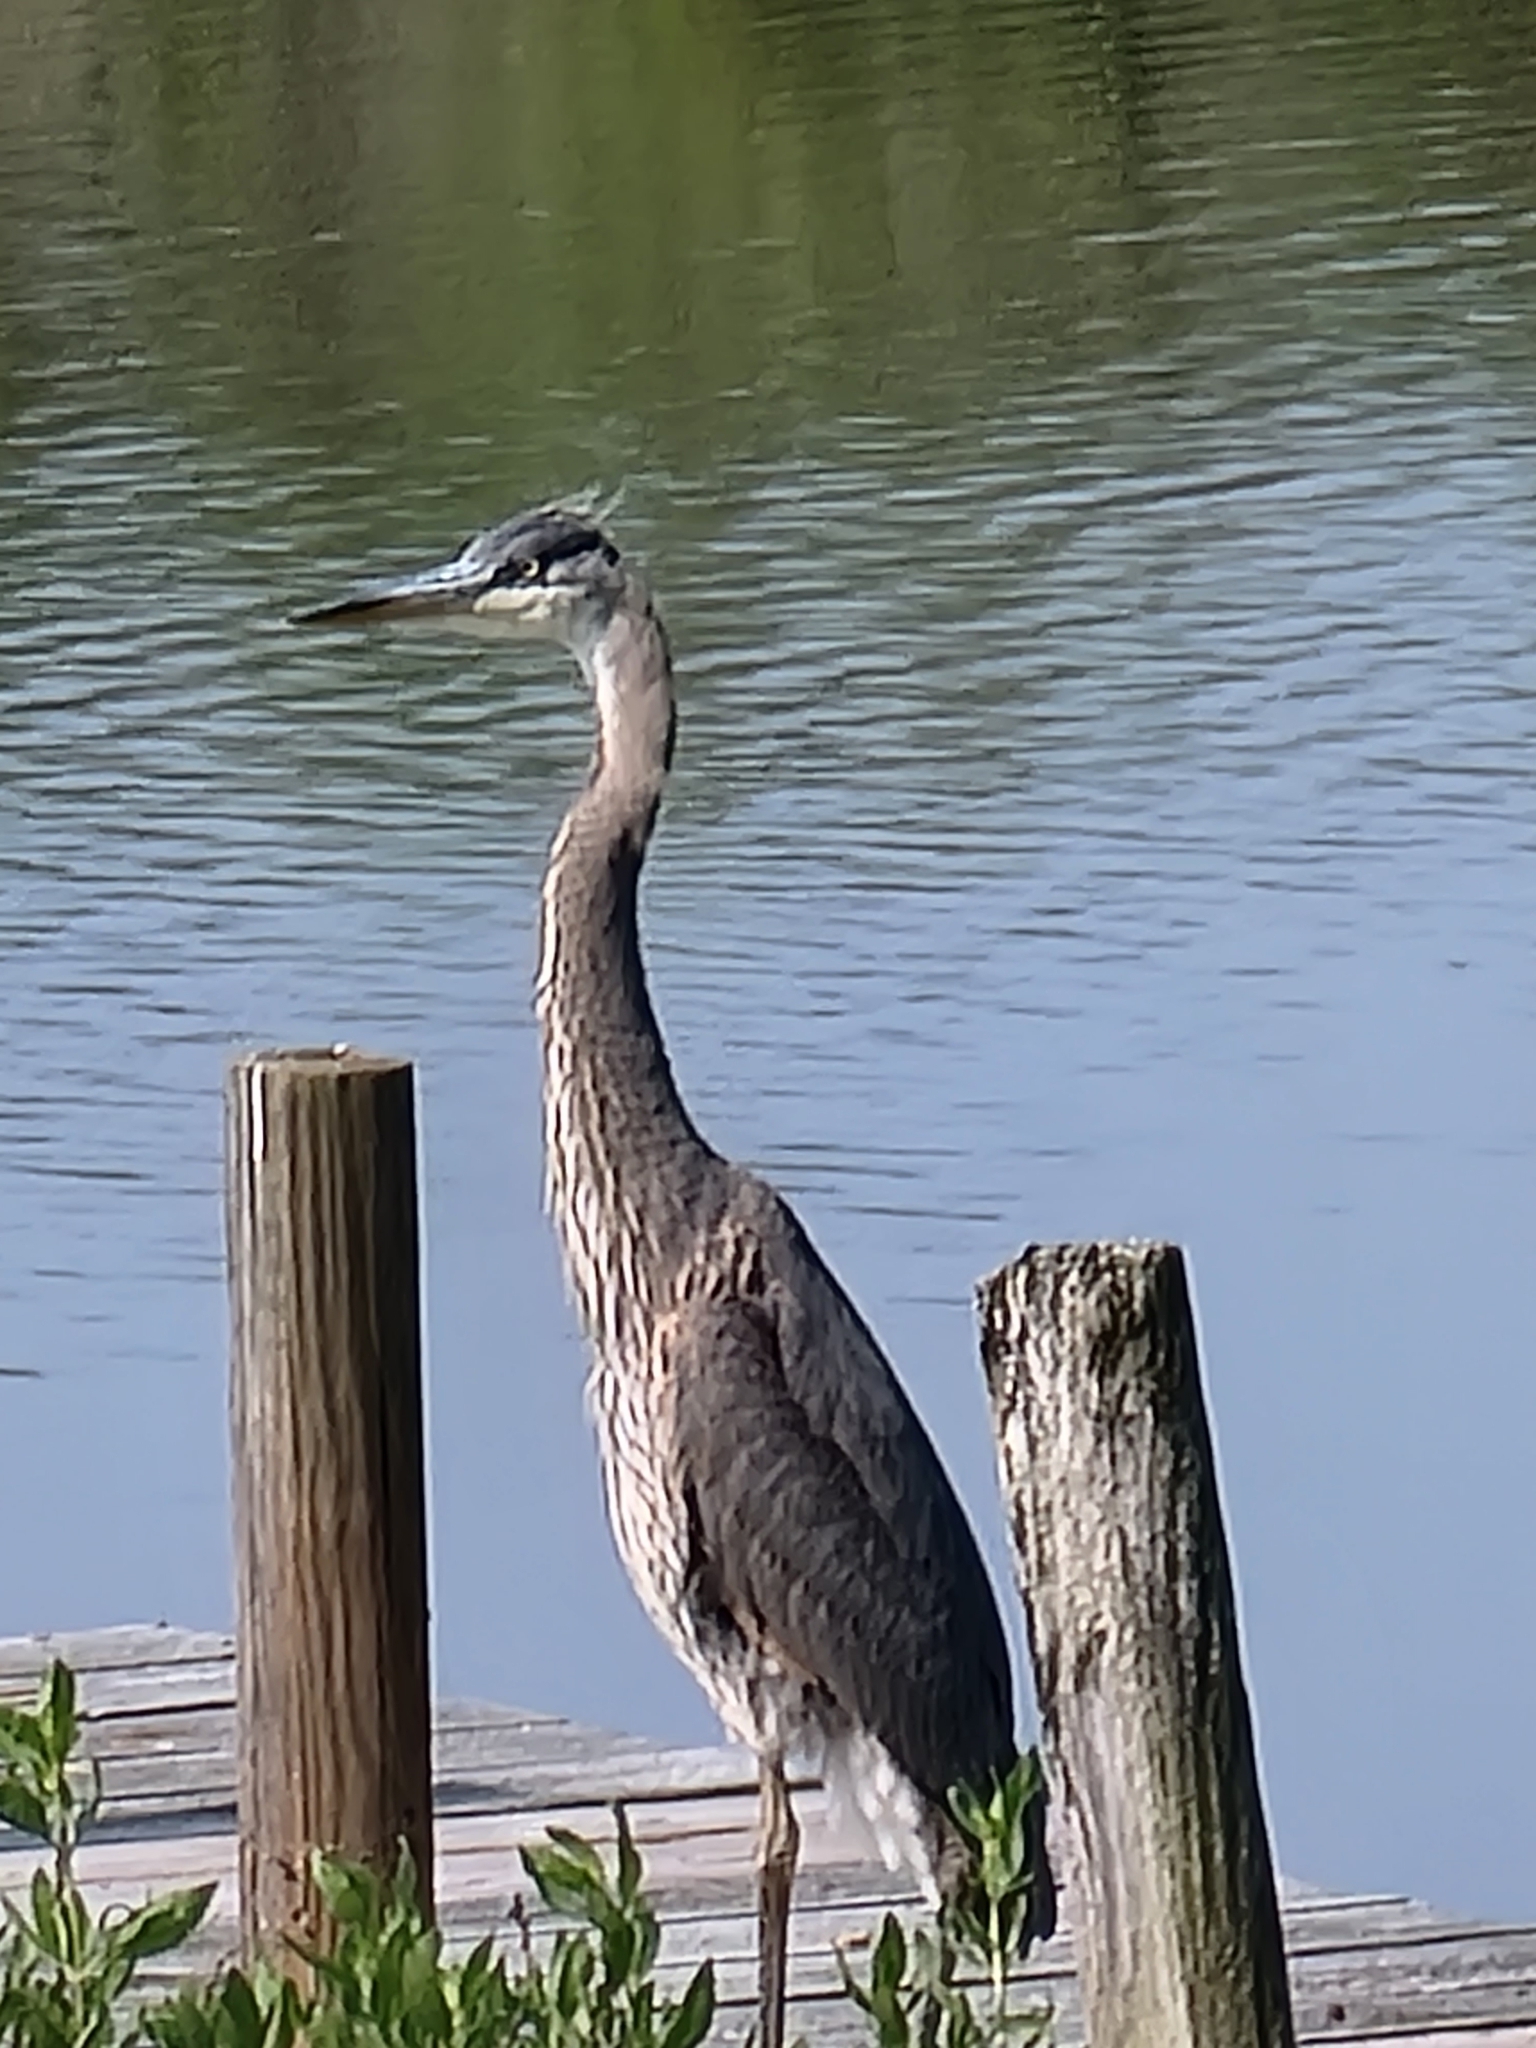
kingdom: Animalia
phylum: Chordata
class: Aves
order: Pelecaniformes
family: Ardeidae
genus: Ardea
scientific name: Ardea herodias
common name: Great blue heron
